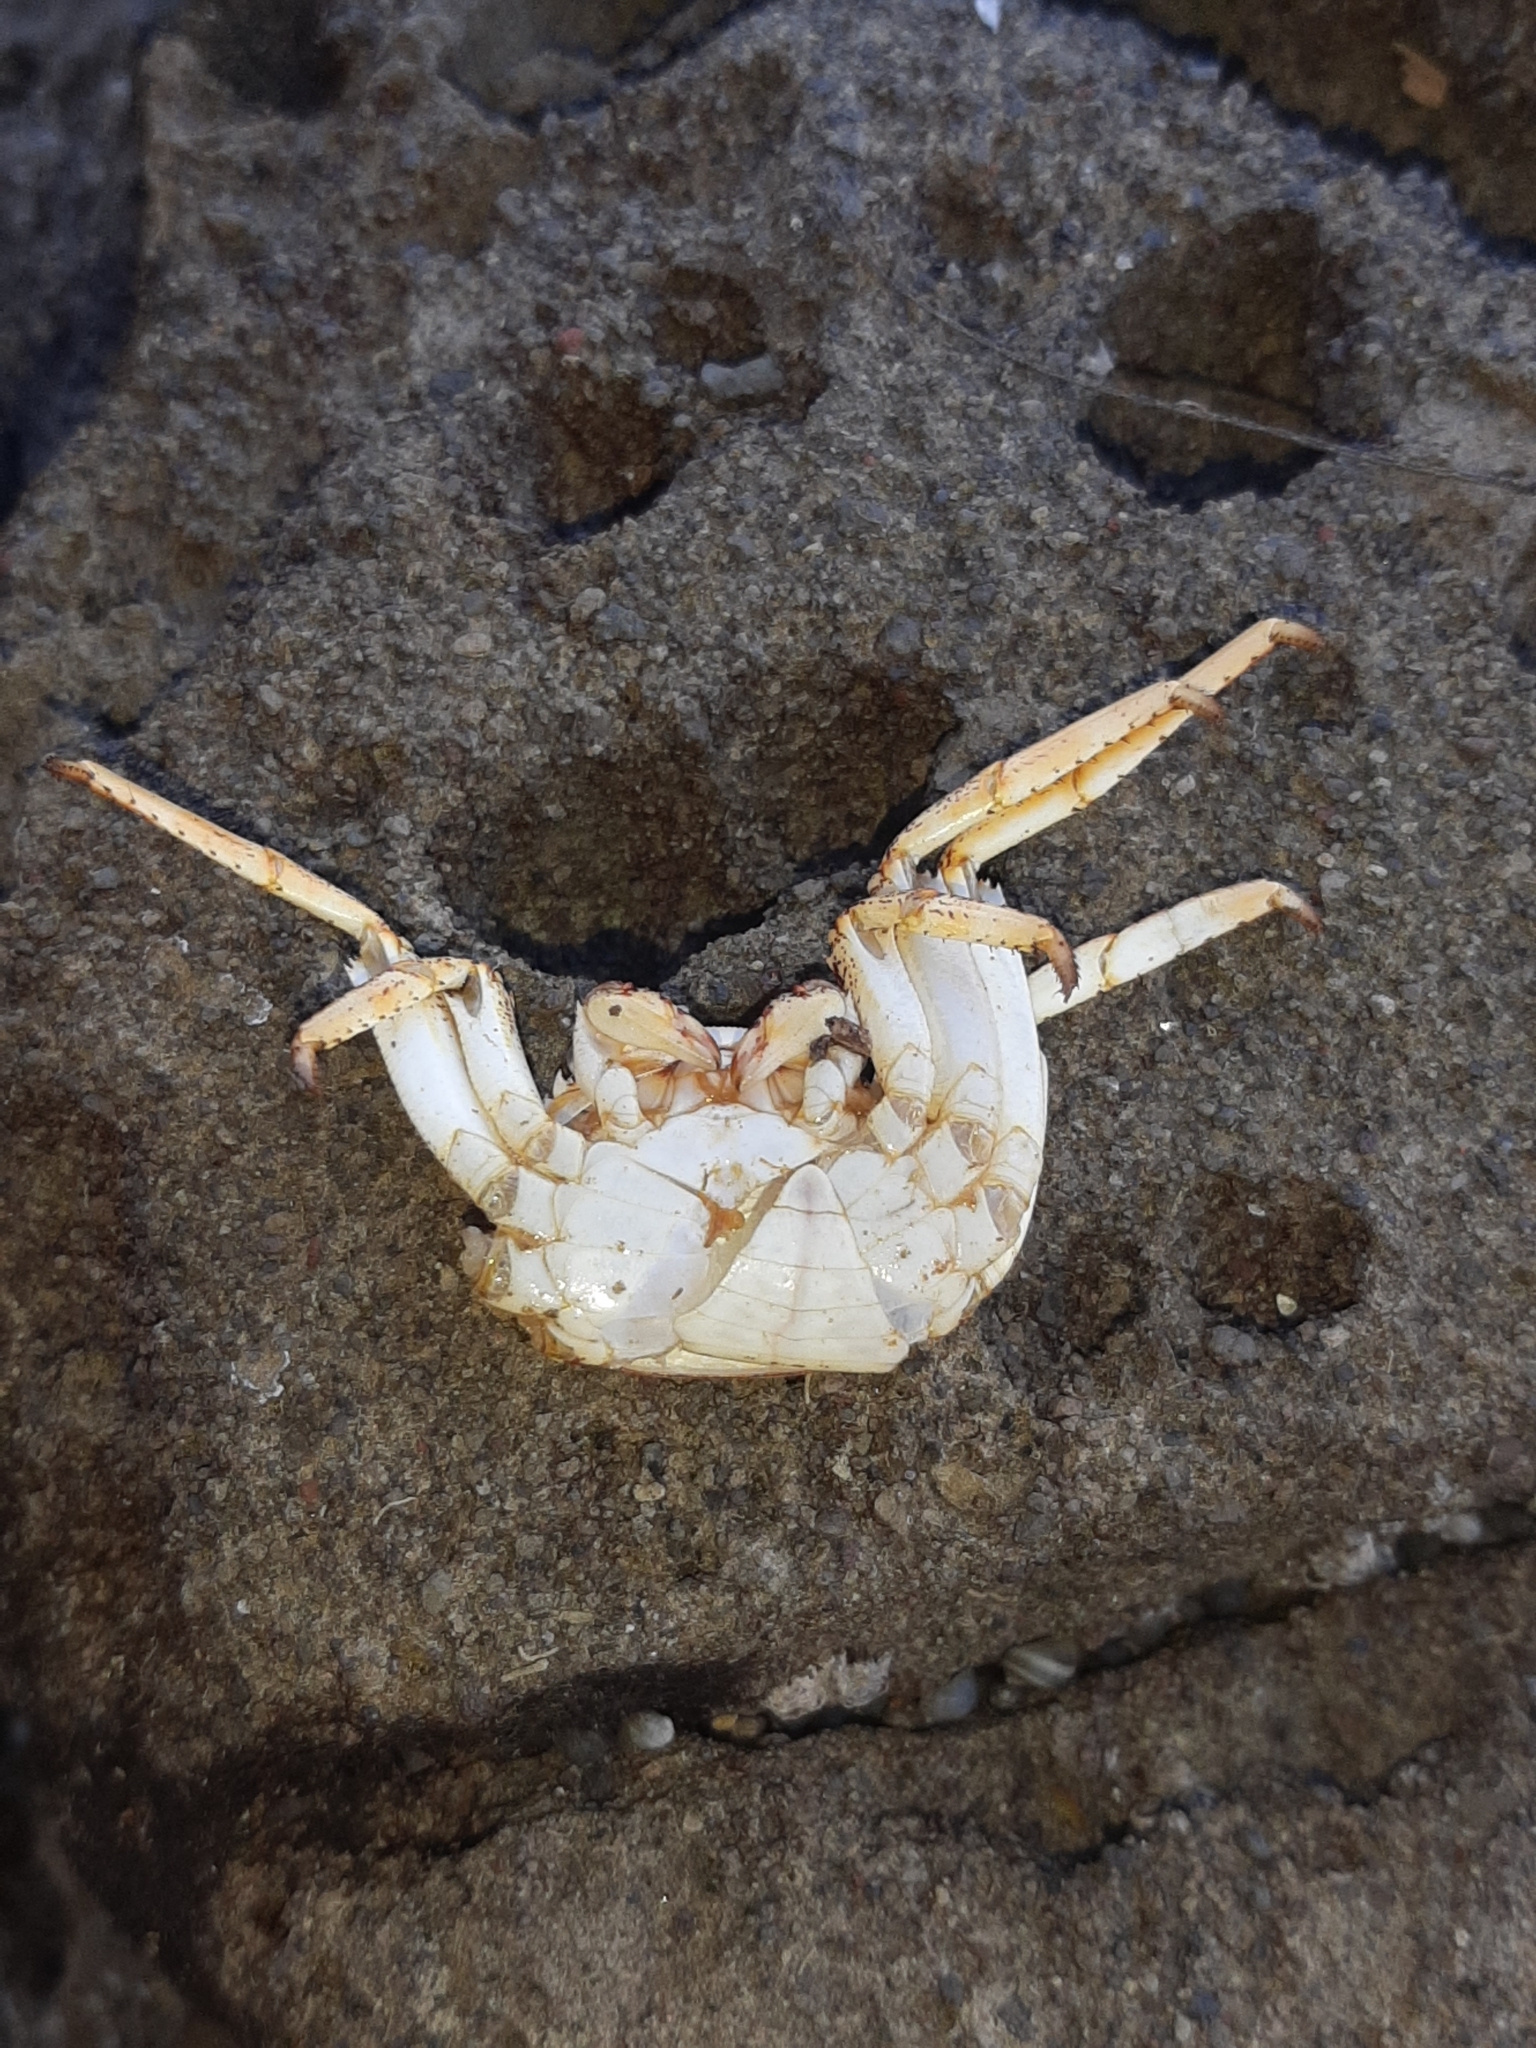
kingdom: Animalia
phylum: Arthropoda
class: Malacostraca
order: Decapoda
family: Grapsidae
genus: Grapsus
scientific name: Grapsus grapsus
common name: Sally lightfoot
